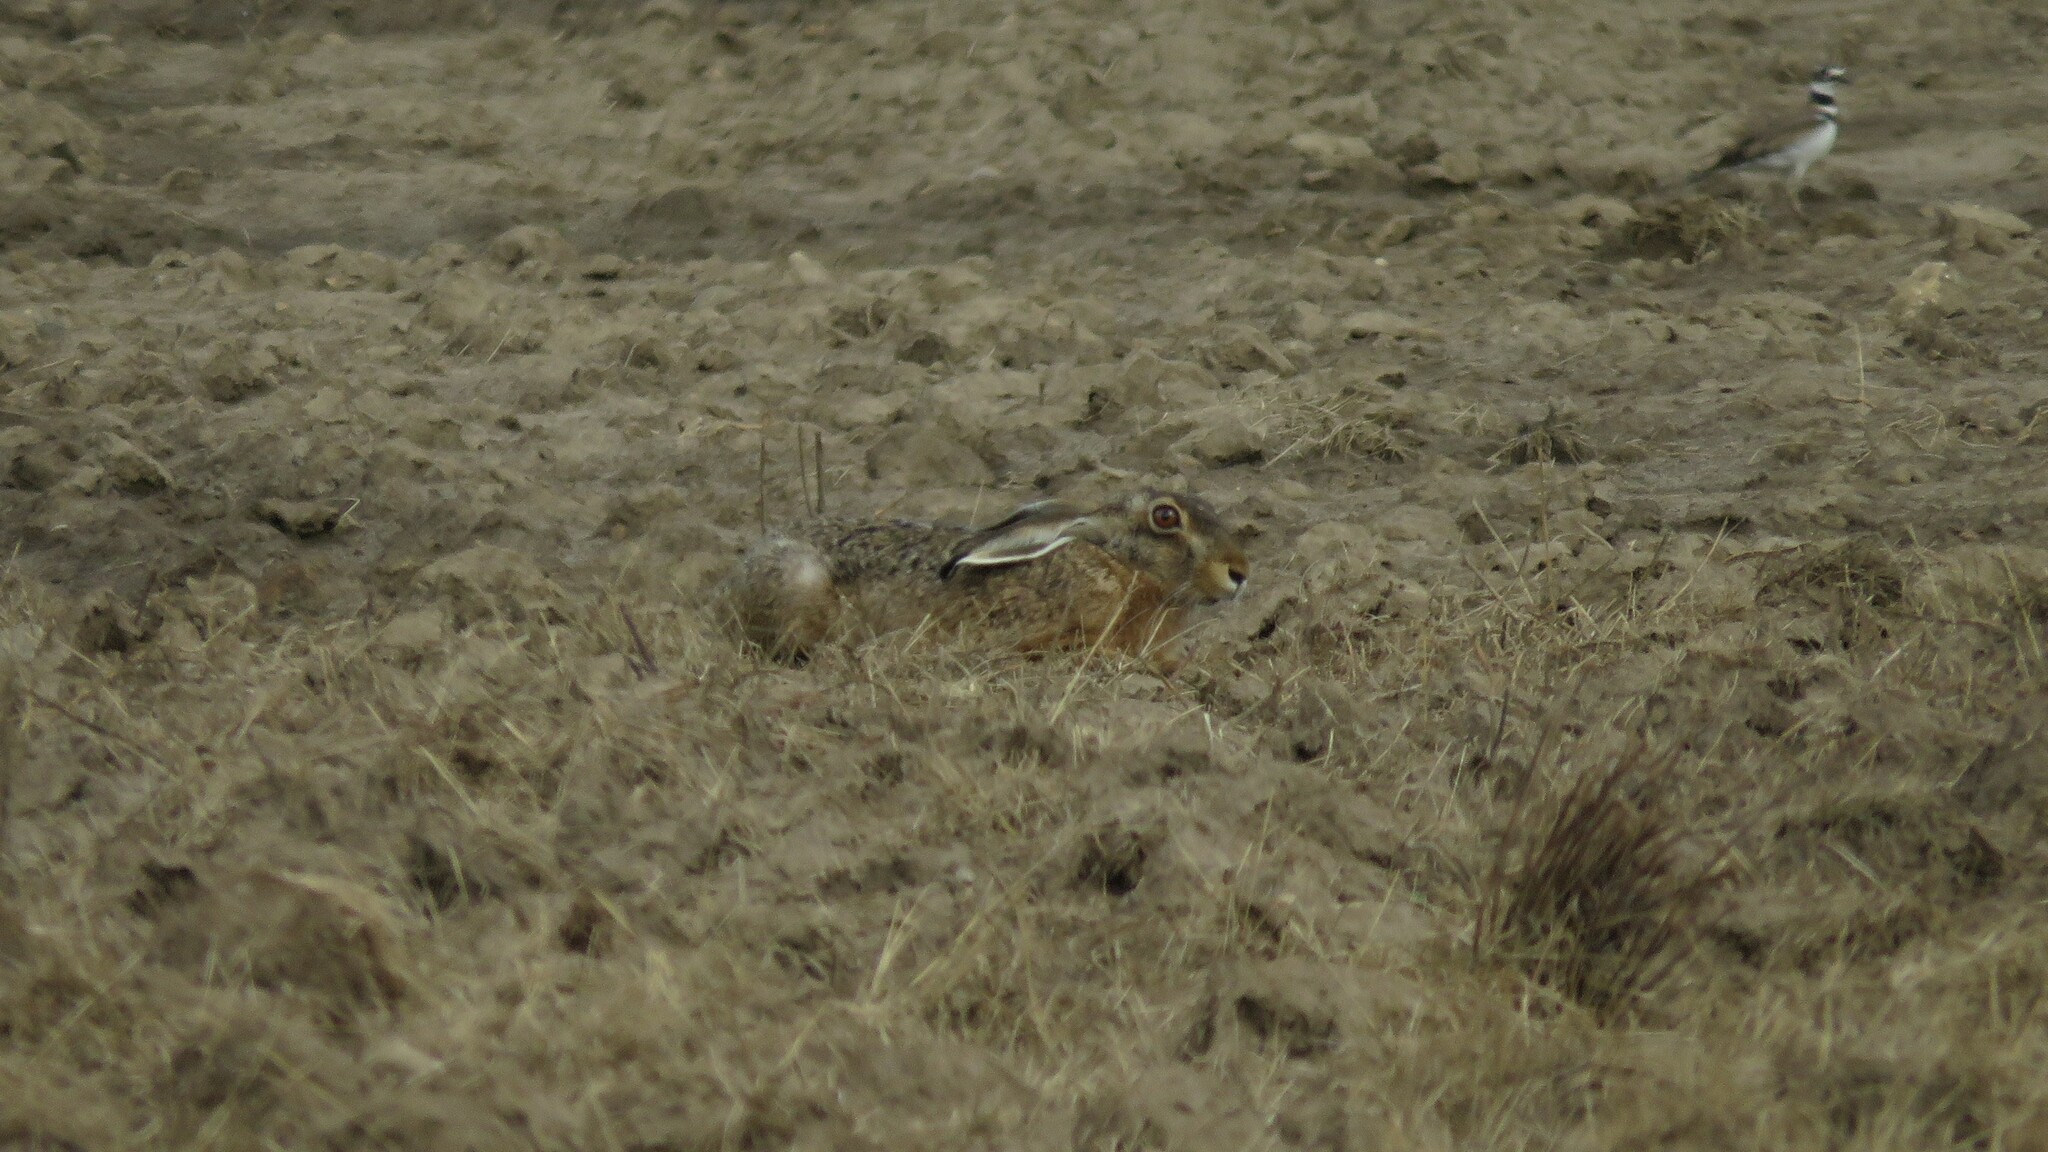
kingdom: Animalia
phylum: Chordata
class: Mammalia
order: Lagomorpha
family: Leporidae
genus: Lepus
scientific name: Lepus europaeus
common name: European hare
